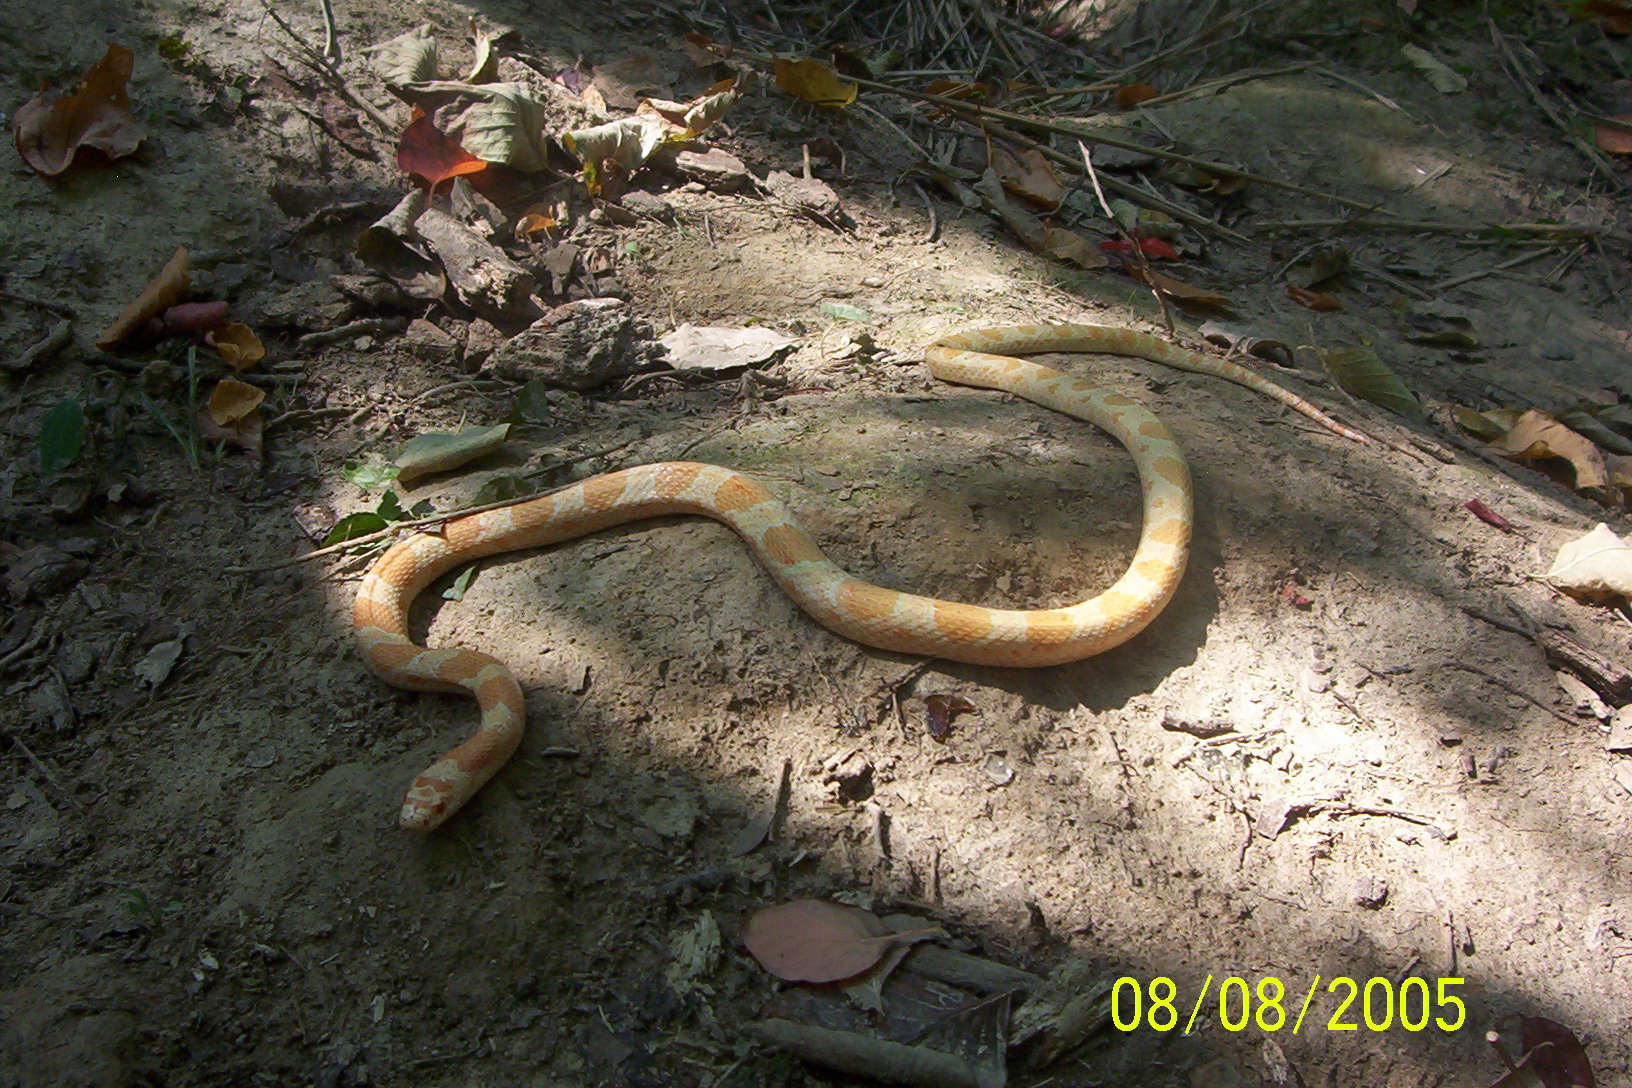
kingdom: Animalia
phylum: Chordata
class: Squamata
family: Colubridae
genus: Lampropeltis
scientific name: Lampropeltis triangulum
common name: Eastern milksnake
